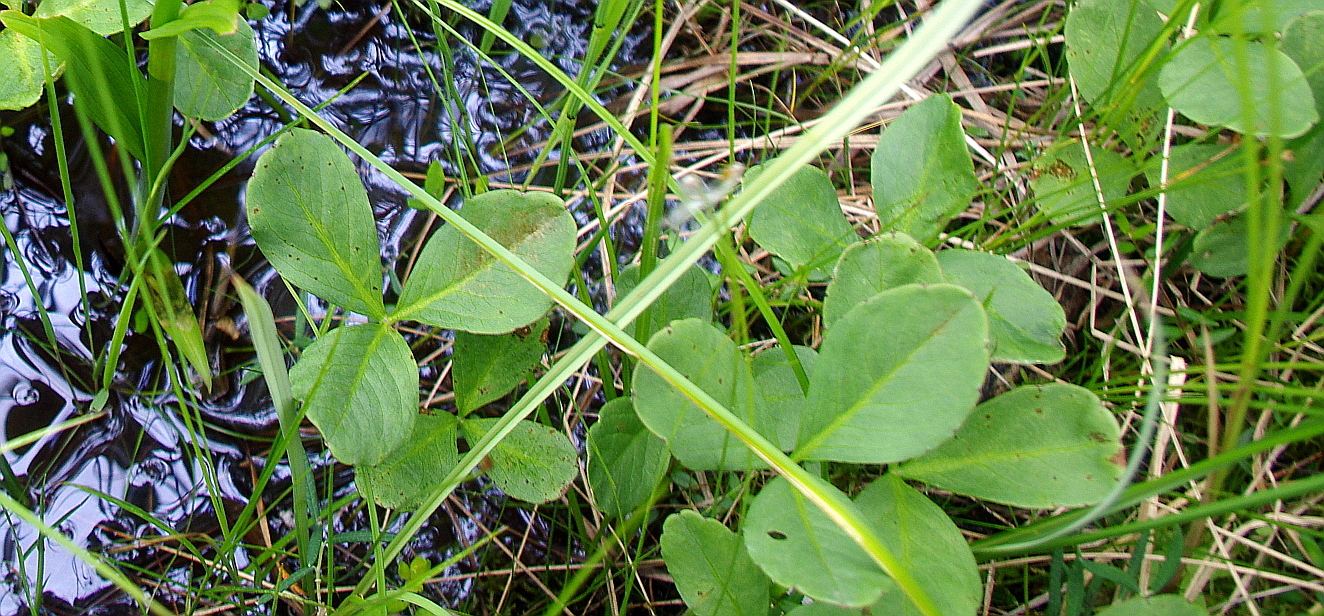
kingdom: Plantae
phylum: Tracheophyta
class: Magnoliopsida
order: Asterales
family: Menyanthaceae
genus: Menyanthes
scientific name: Menyanthes trifoliata
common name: Bogbean
